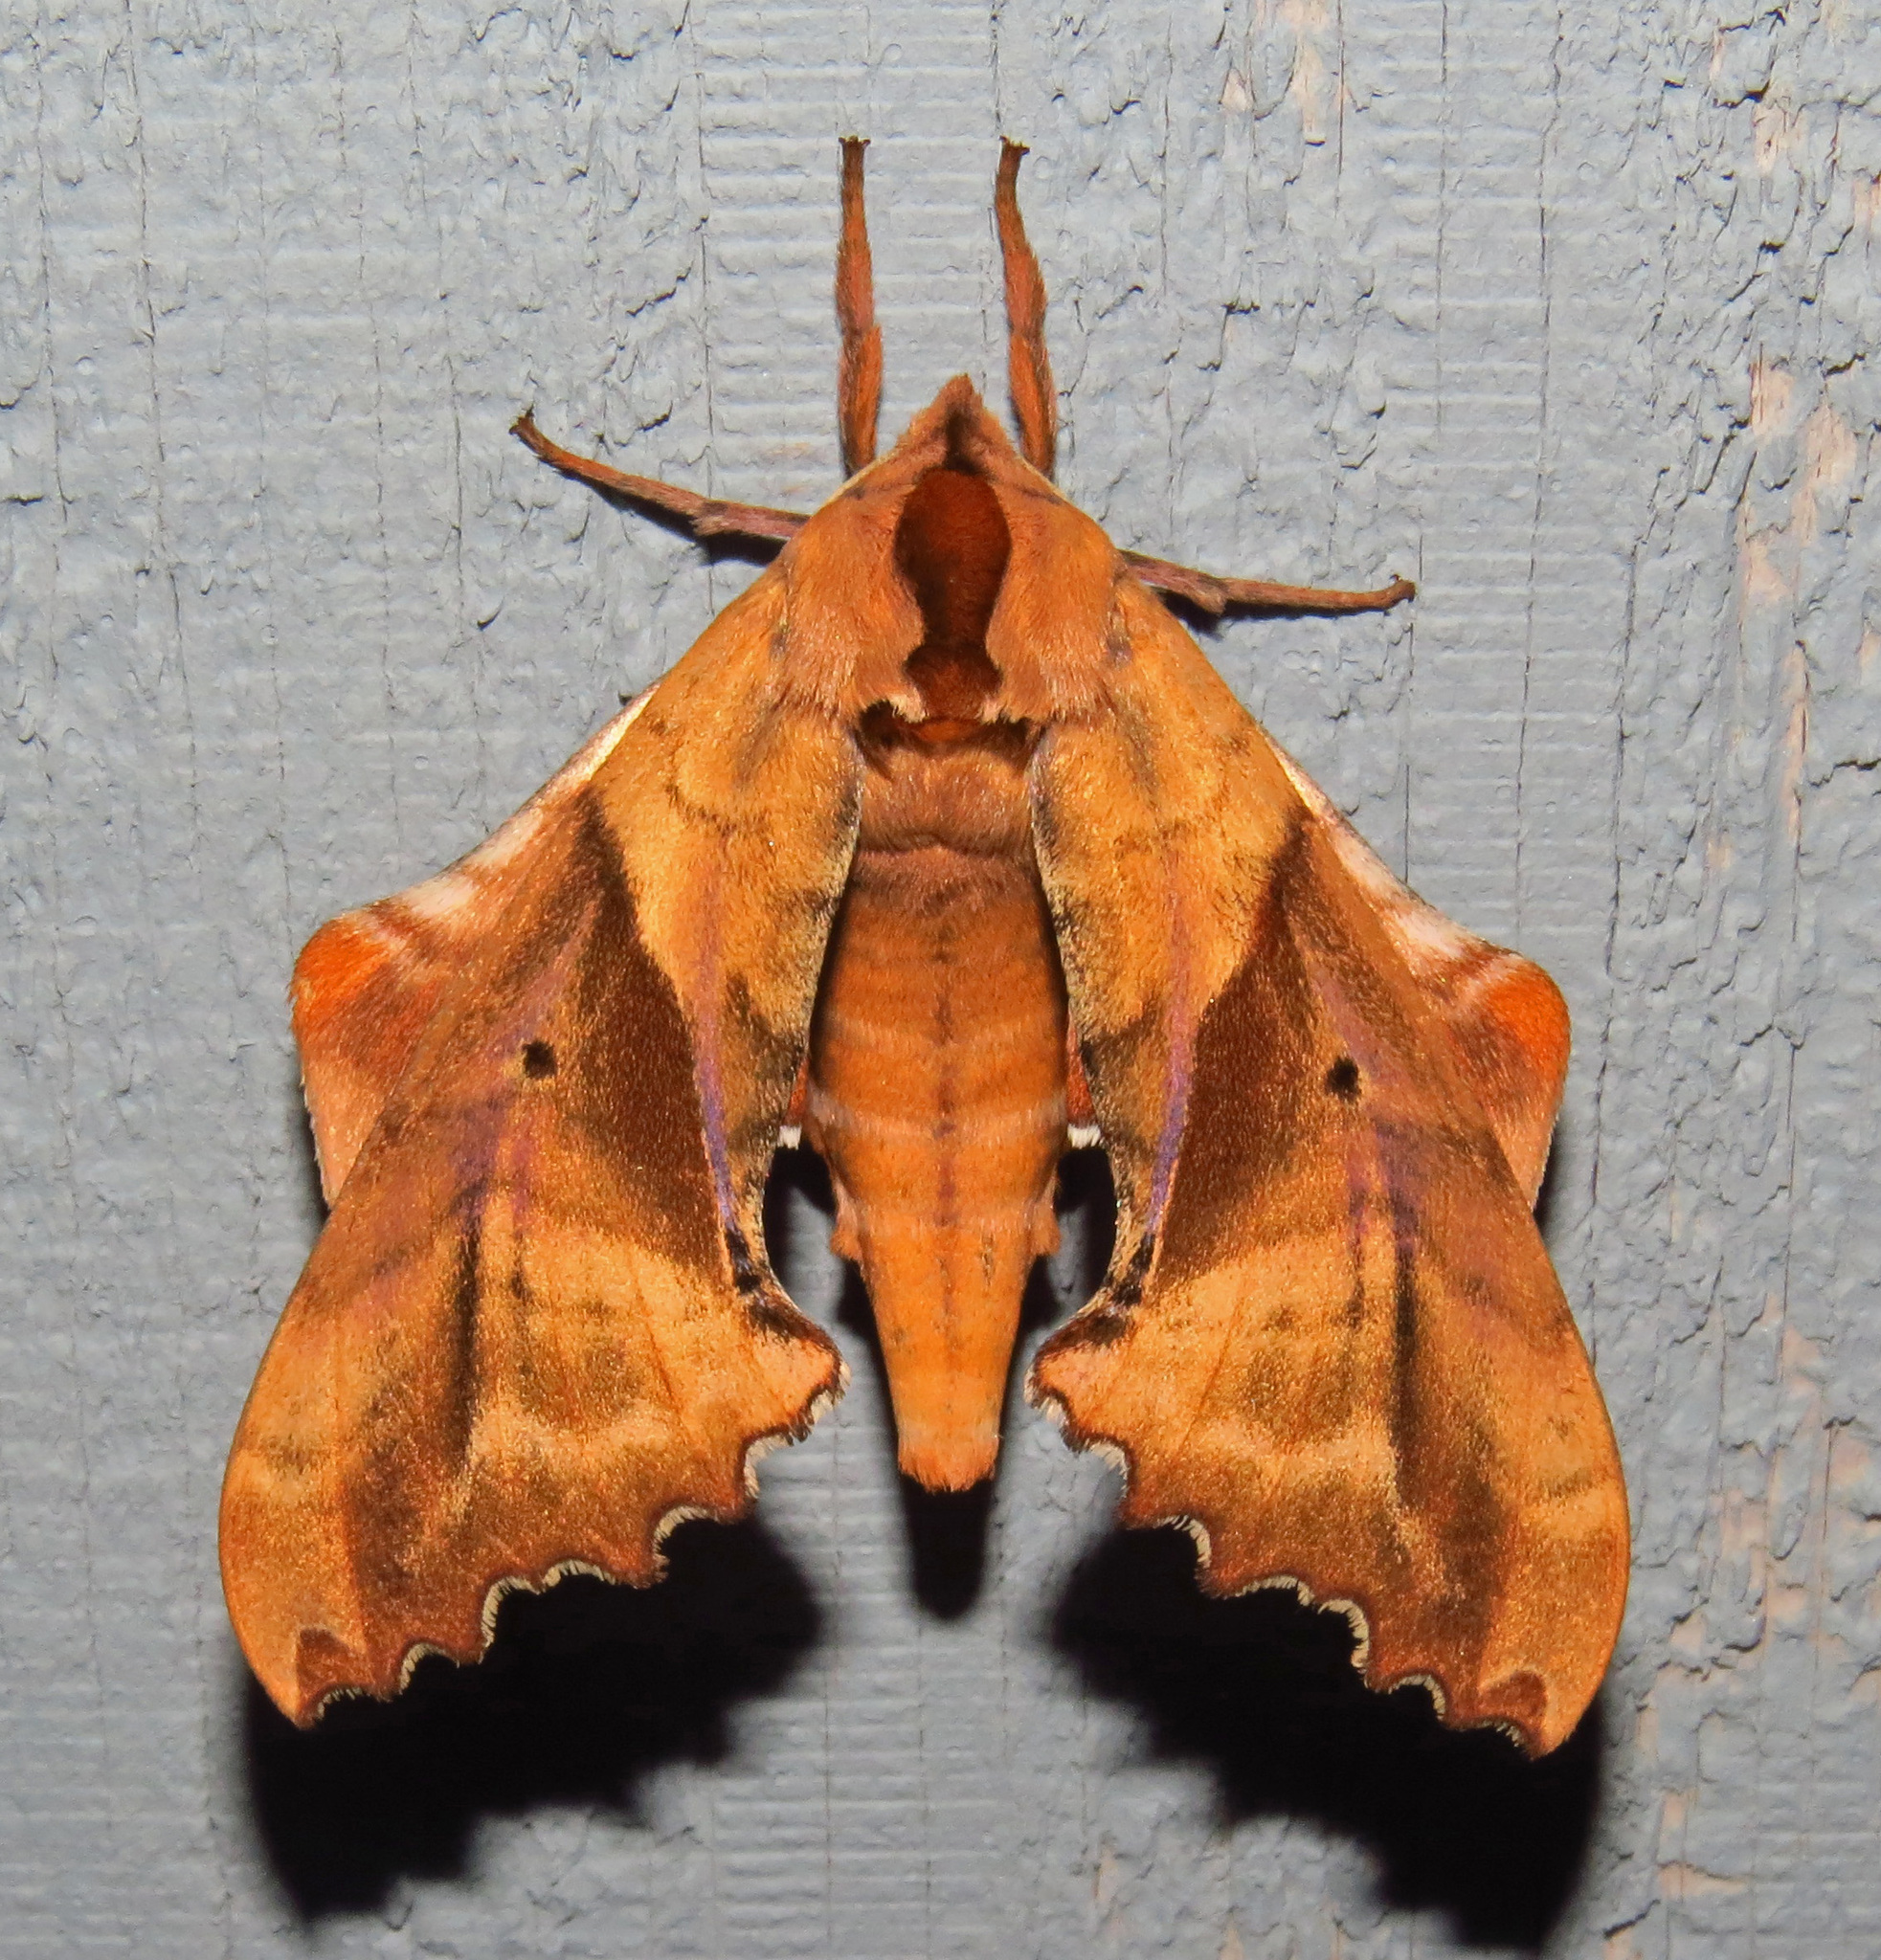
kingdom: Animalia
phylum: Arthropoda
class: Insecta
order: Lepidoptera
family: Sphingidae
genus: Paonias
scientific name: Paonias excaecata
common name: Blind-eyed sphinx
